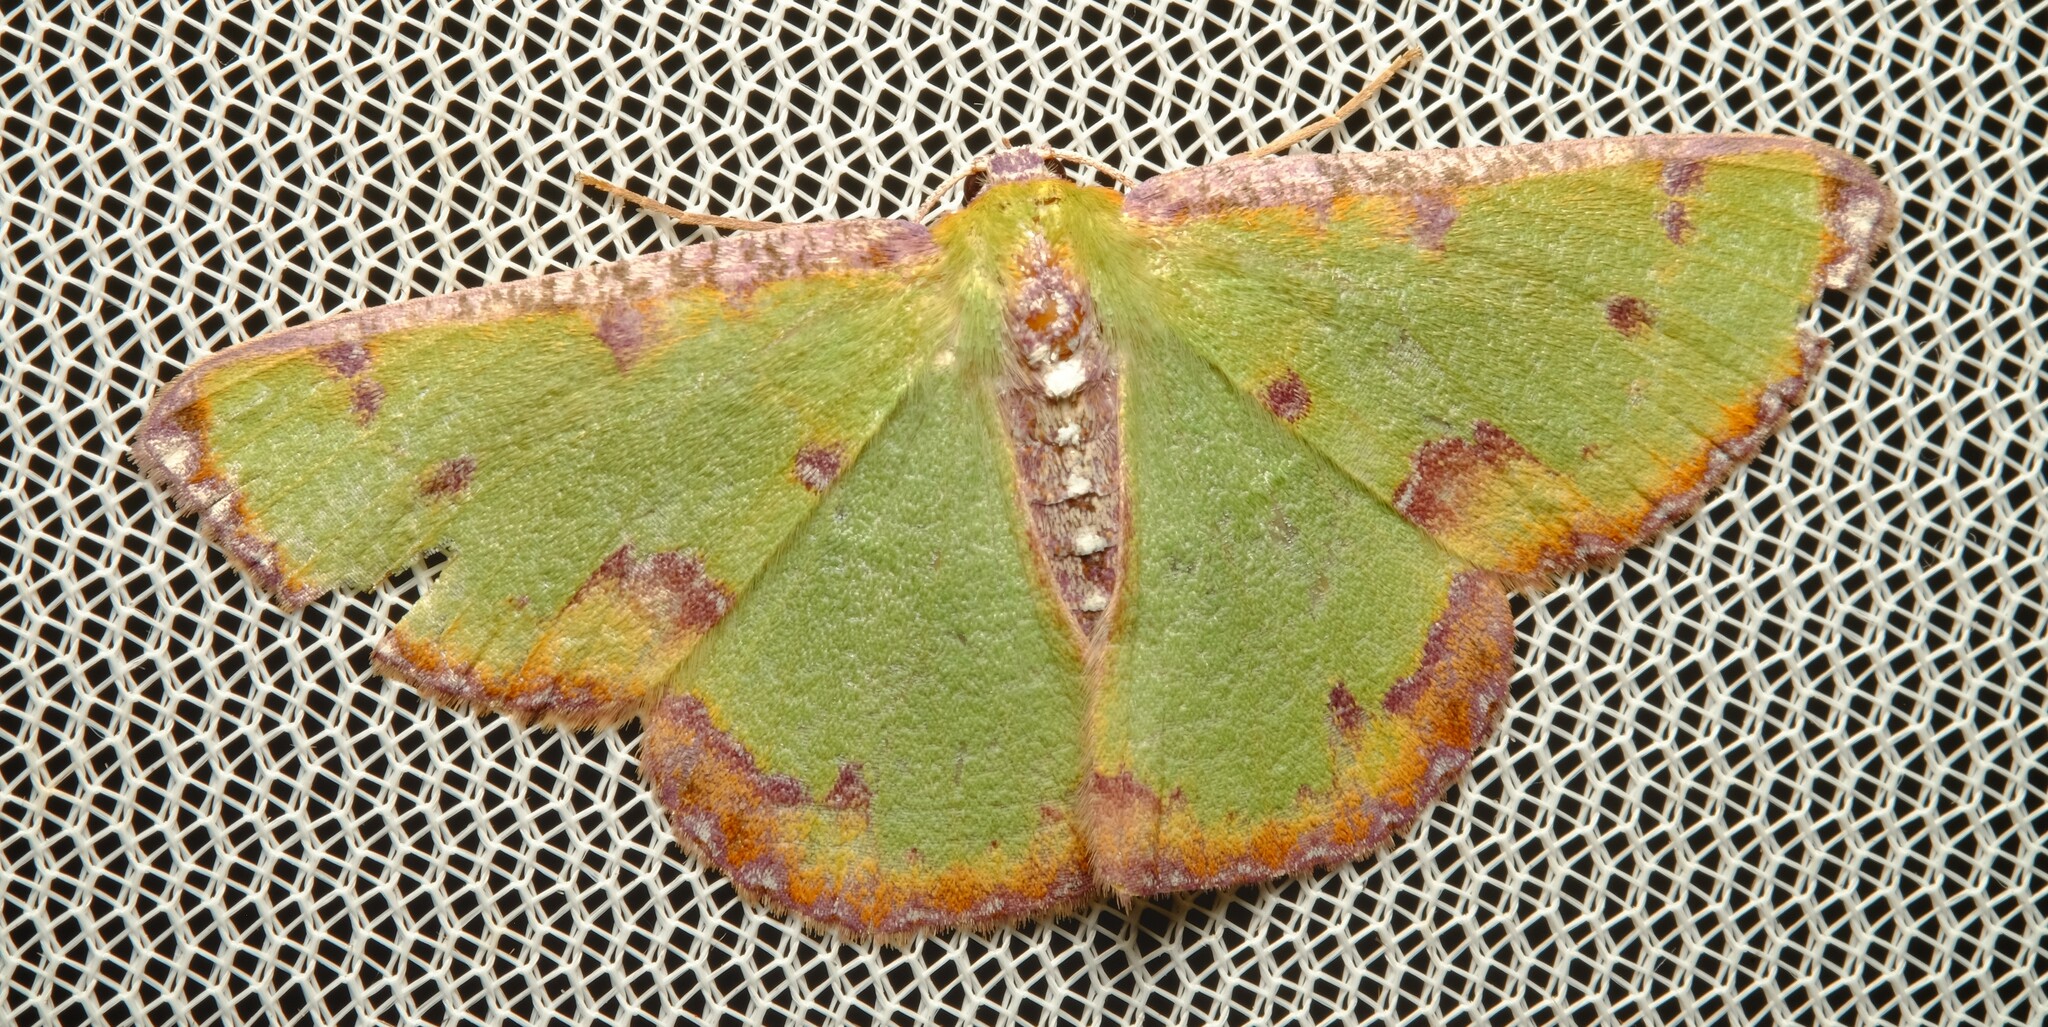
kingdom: Animalia
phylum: Arthropoda
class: Insecta
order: Lepidoptera
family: Geometridae
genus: Eucyclodes
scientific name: Eucyclodes buprestaria
